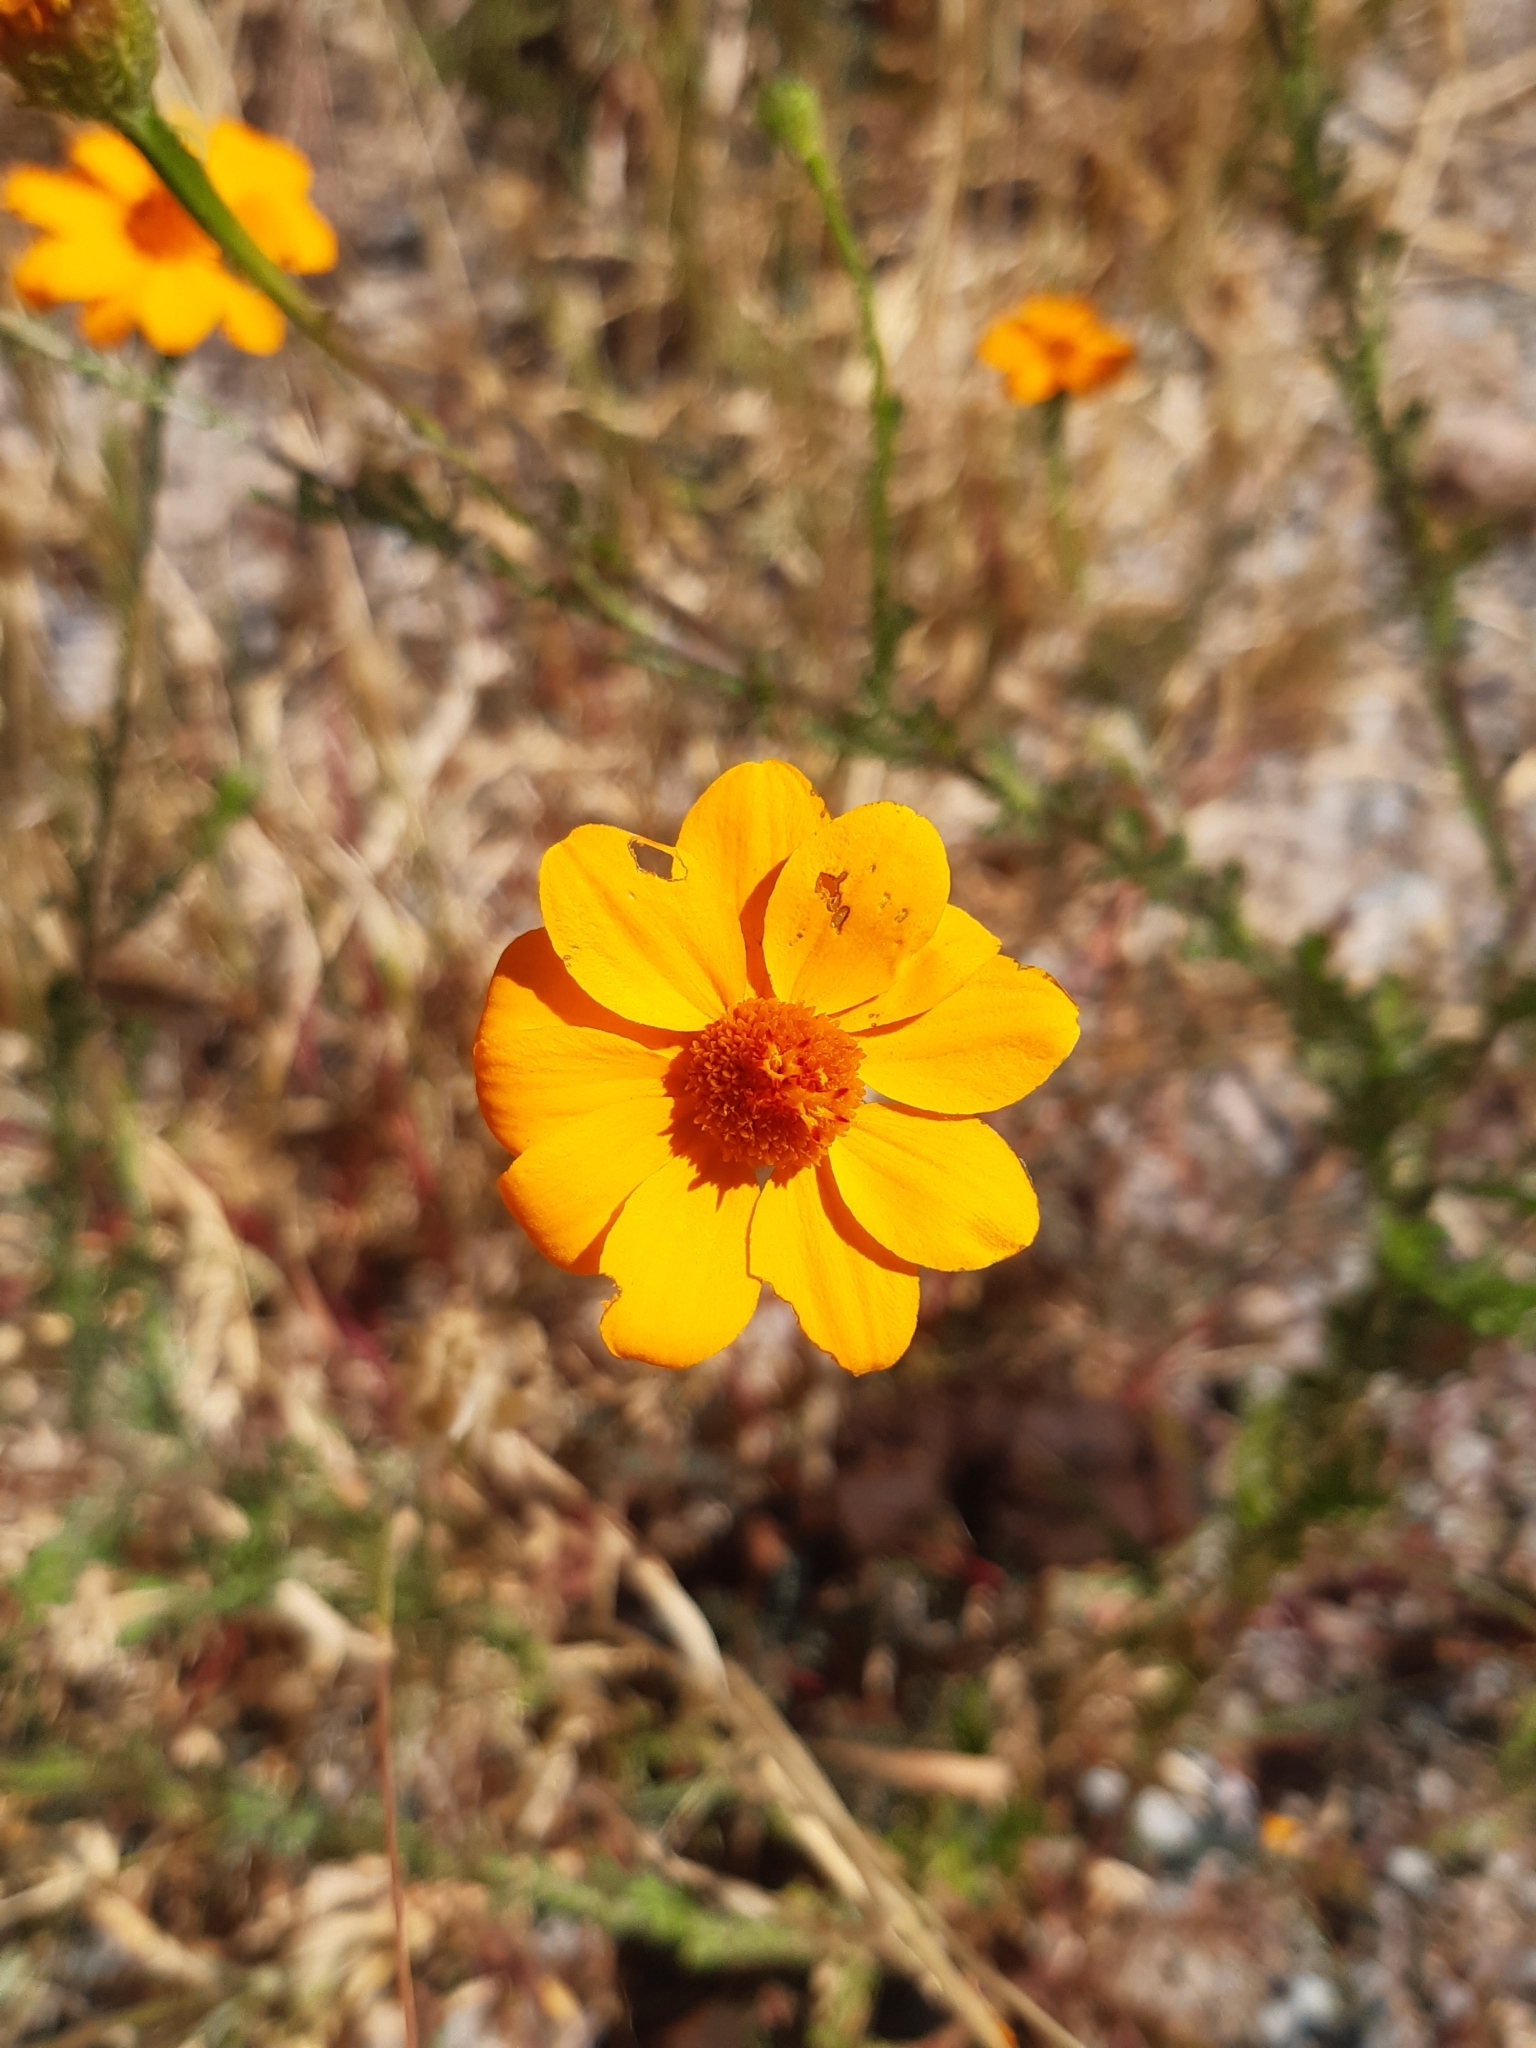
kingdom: Plantae
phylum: Tracheophyta
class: Magnoliopsida
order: Asterales
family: Asteraceae
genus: Adenophyllum
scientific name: Adenophyllum cancellatum
